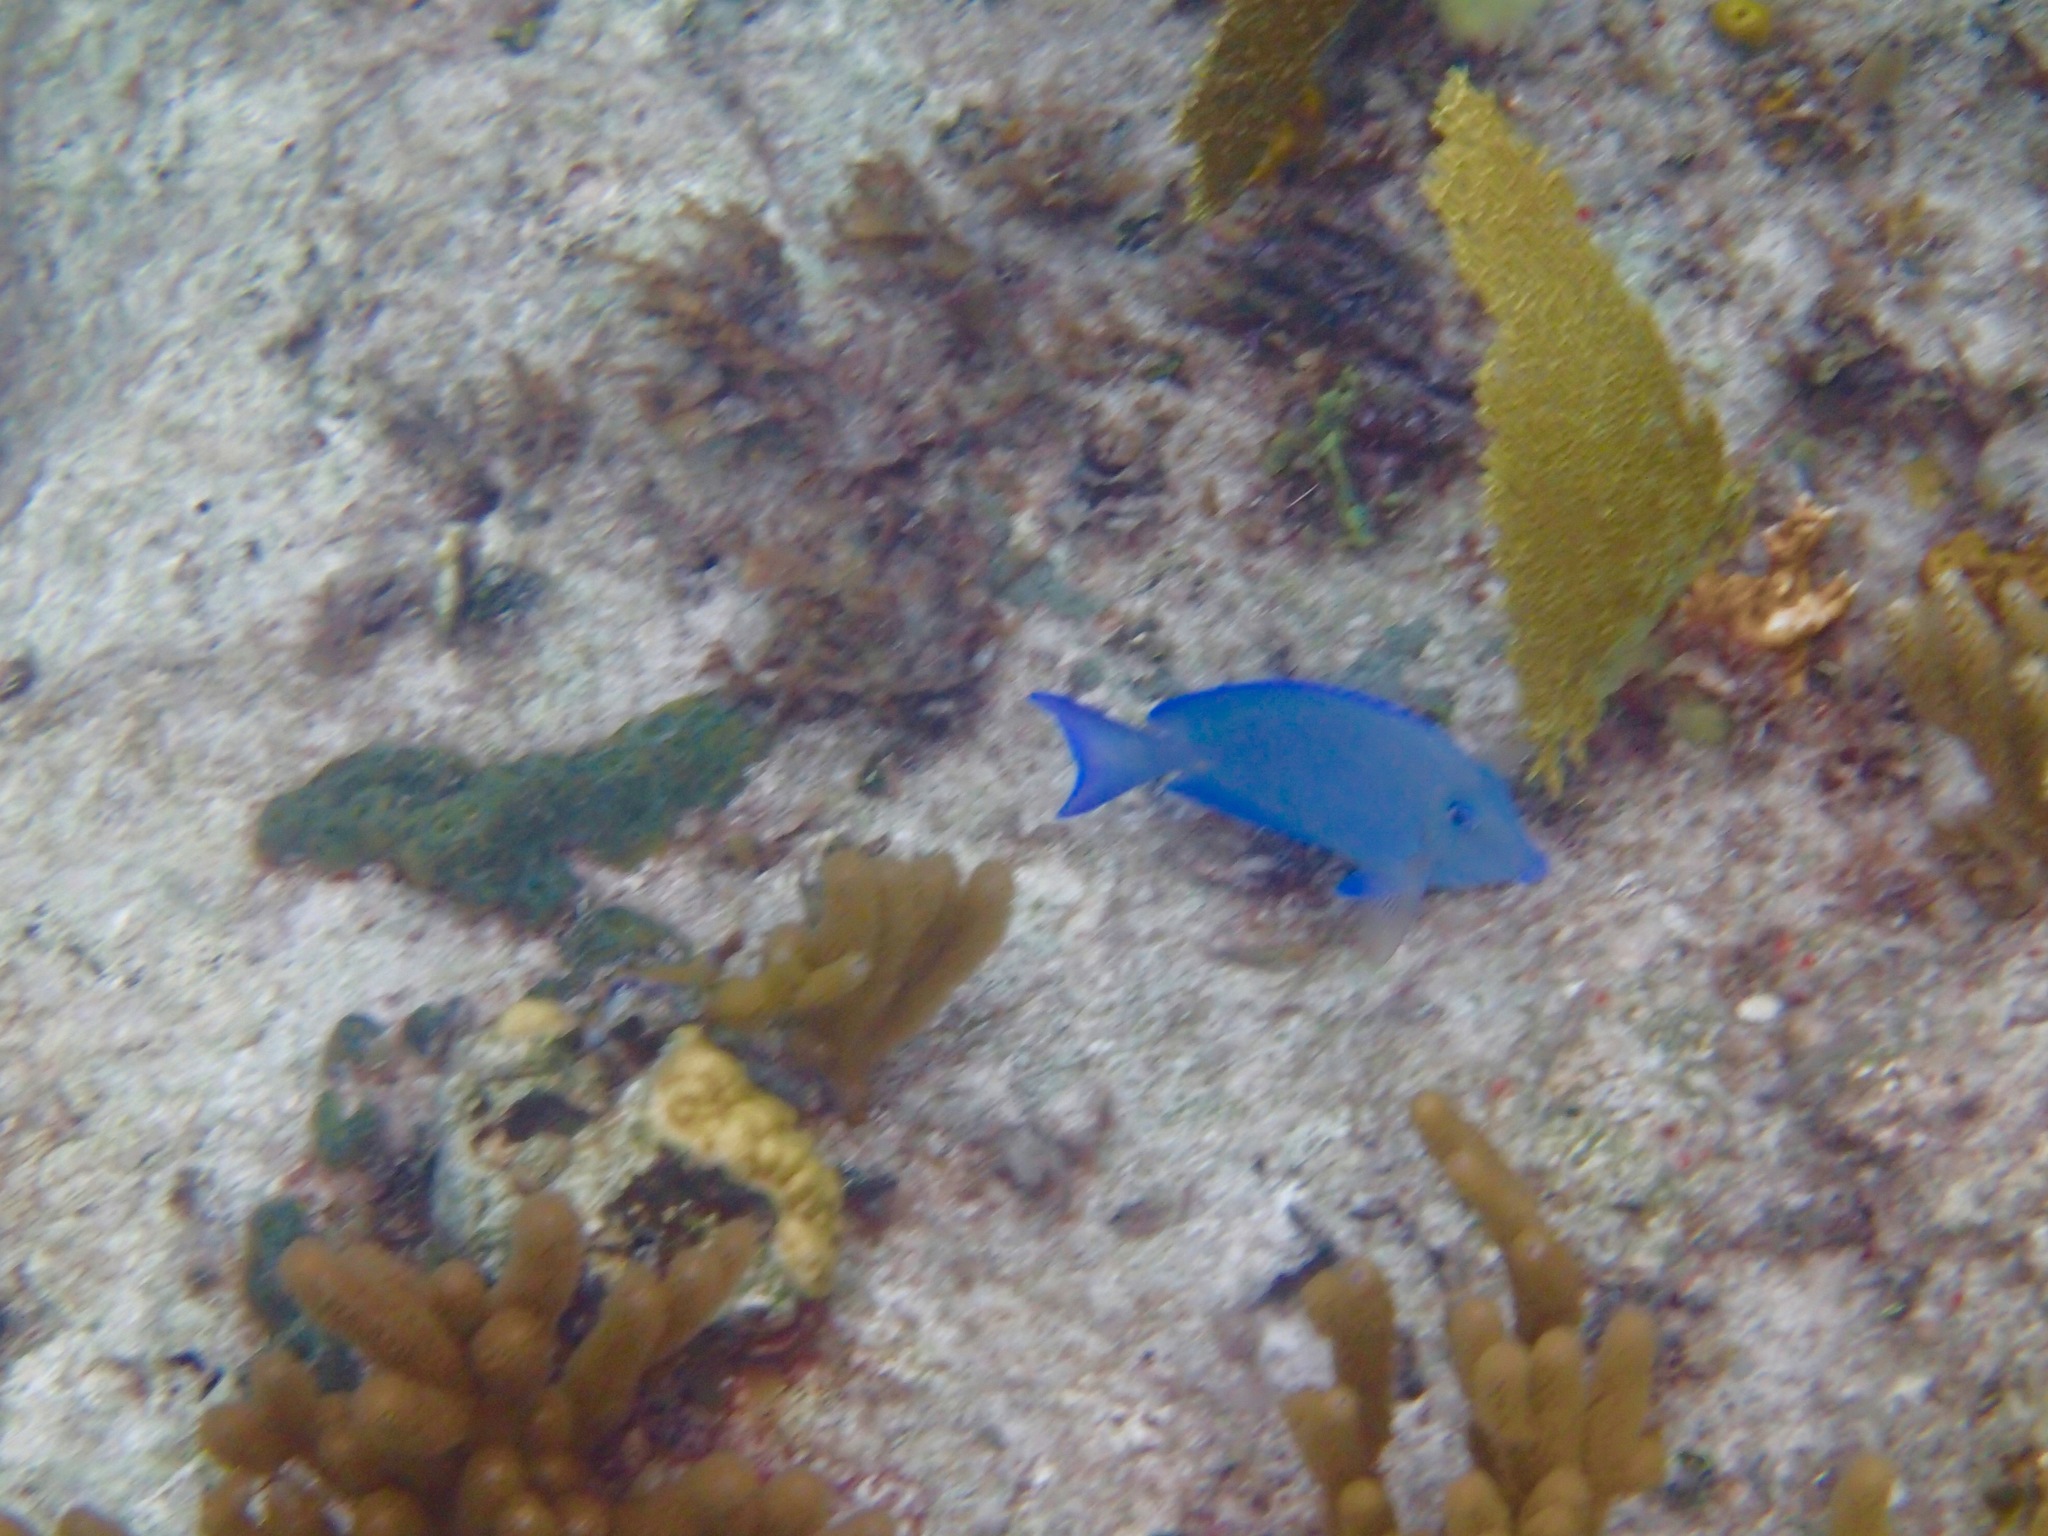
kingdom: Animalia
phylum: Chordata
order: Perciformes
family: Acanthuridae
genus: Acanthurus
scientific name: Acanthurus coeruleus
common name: Blue tang
